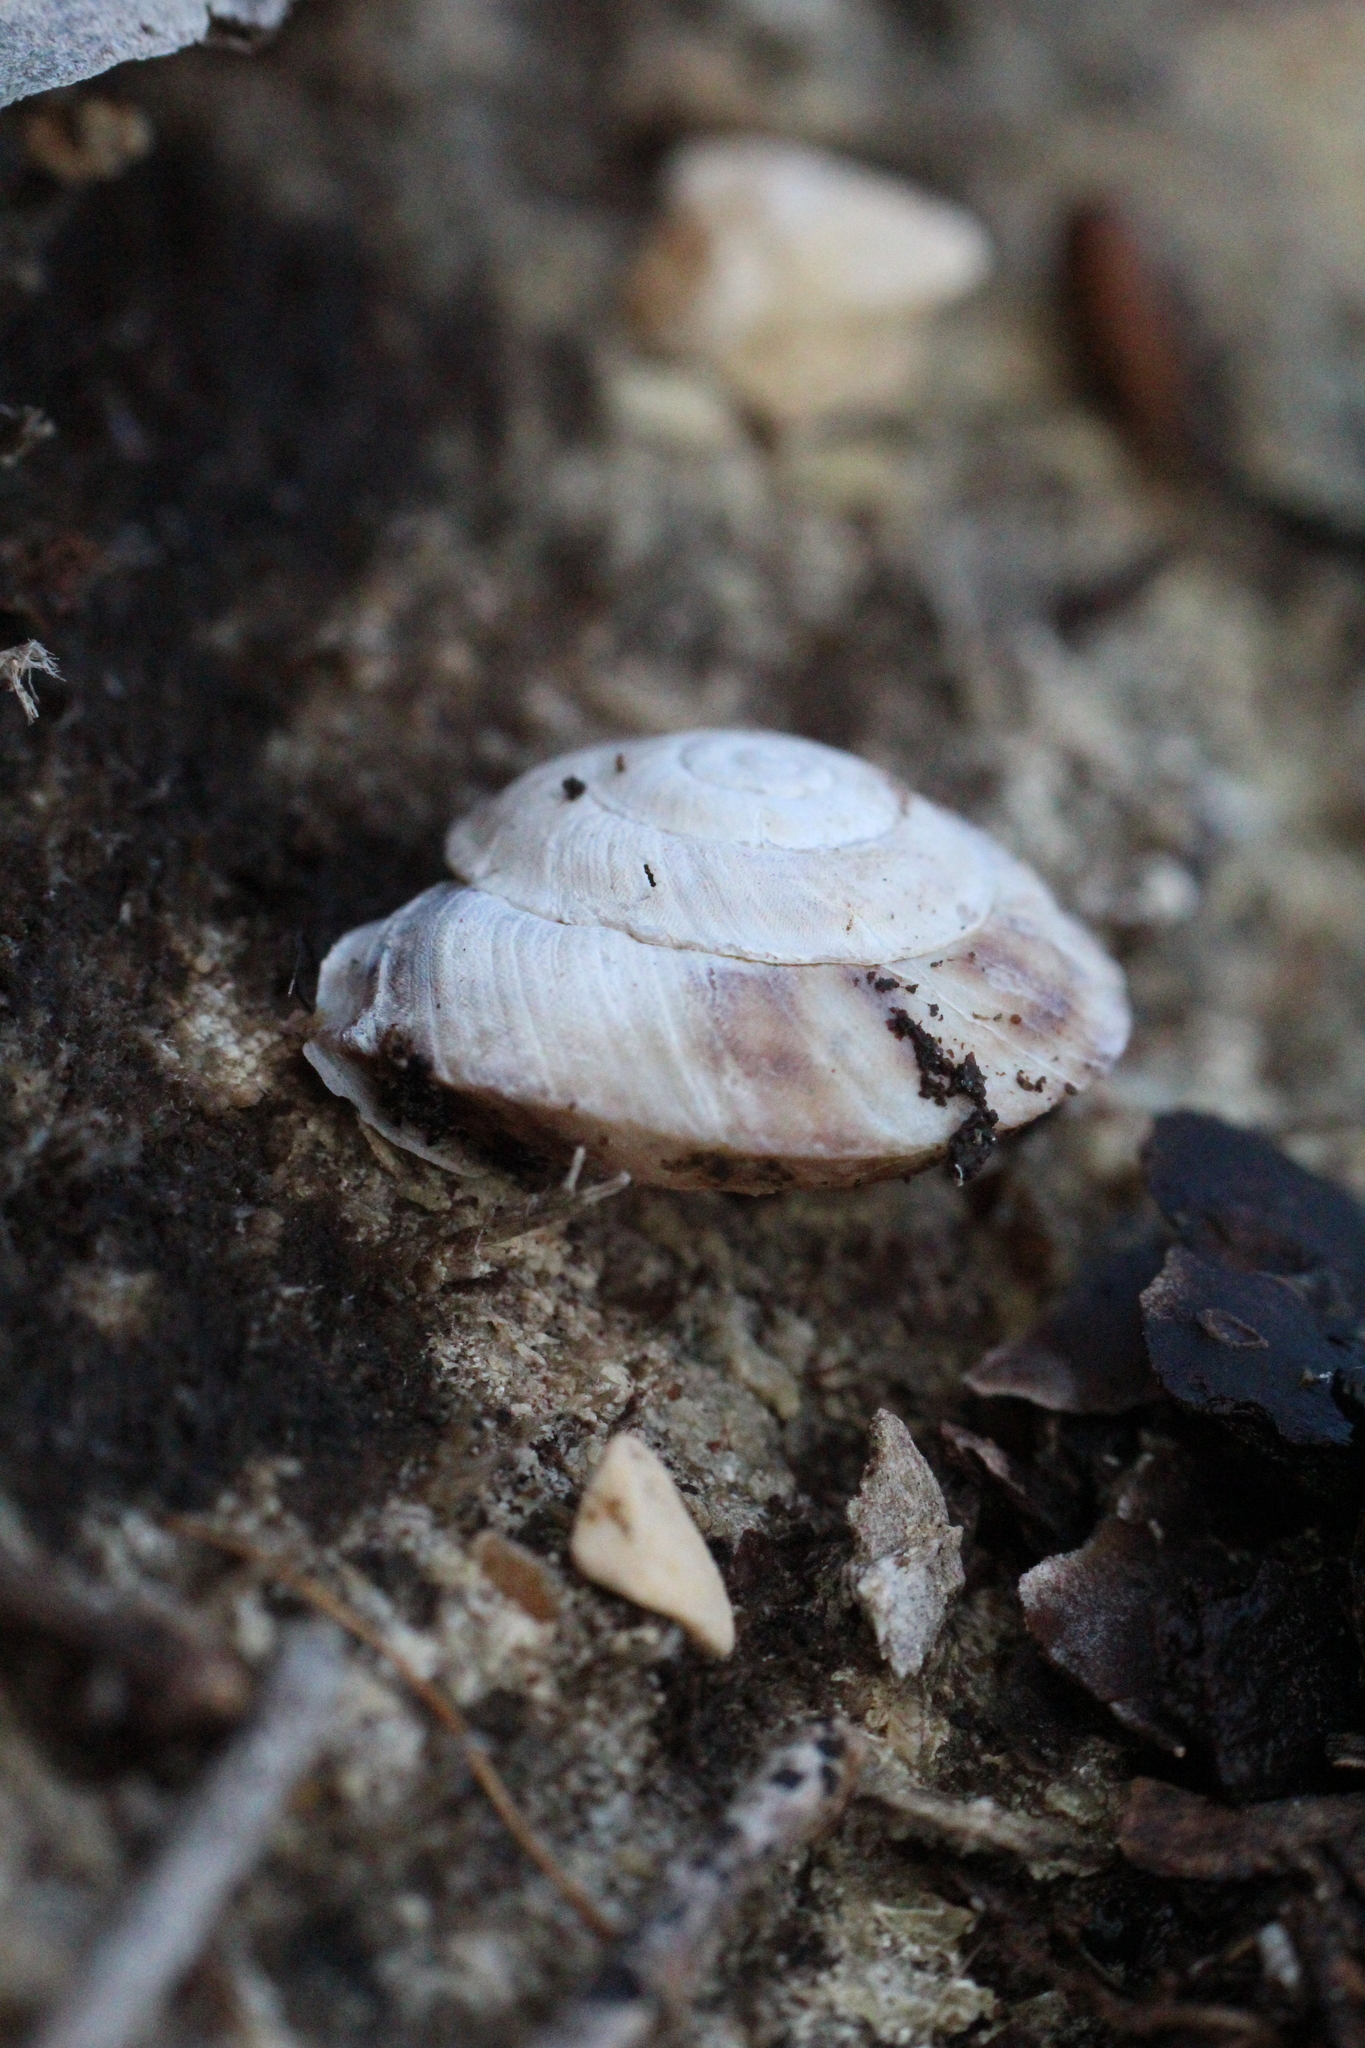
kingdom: Animalia
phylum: Mollusca
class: Gastropoda
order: Stylommatophora
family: Helicidae
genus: Helicigona
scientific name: Helicigona lapicida
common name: Lapidary snail
